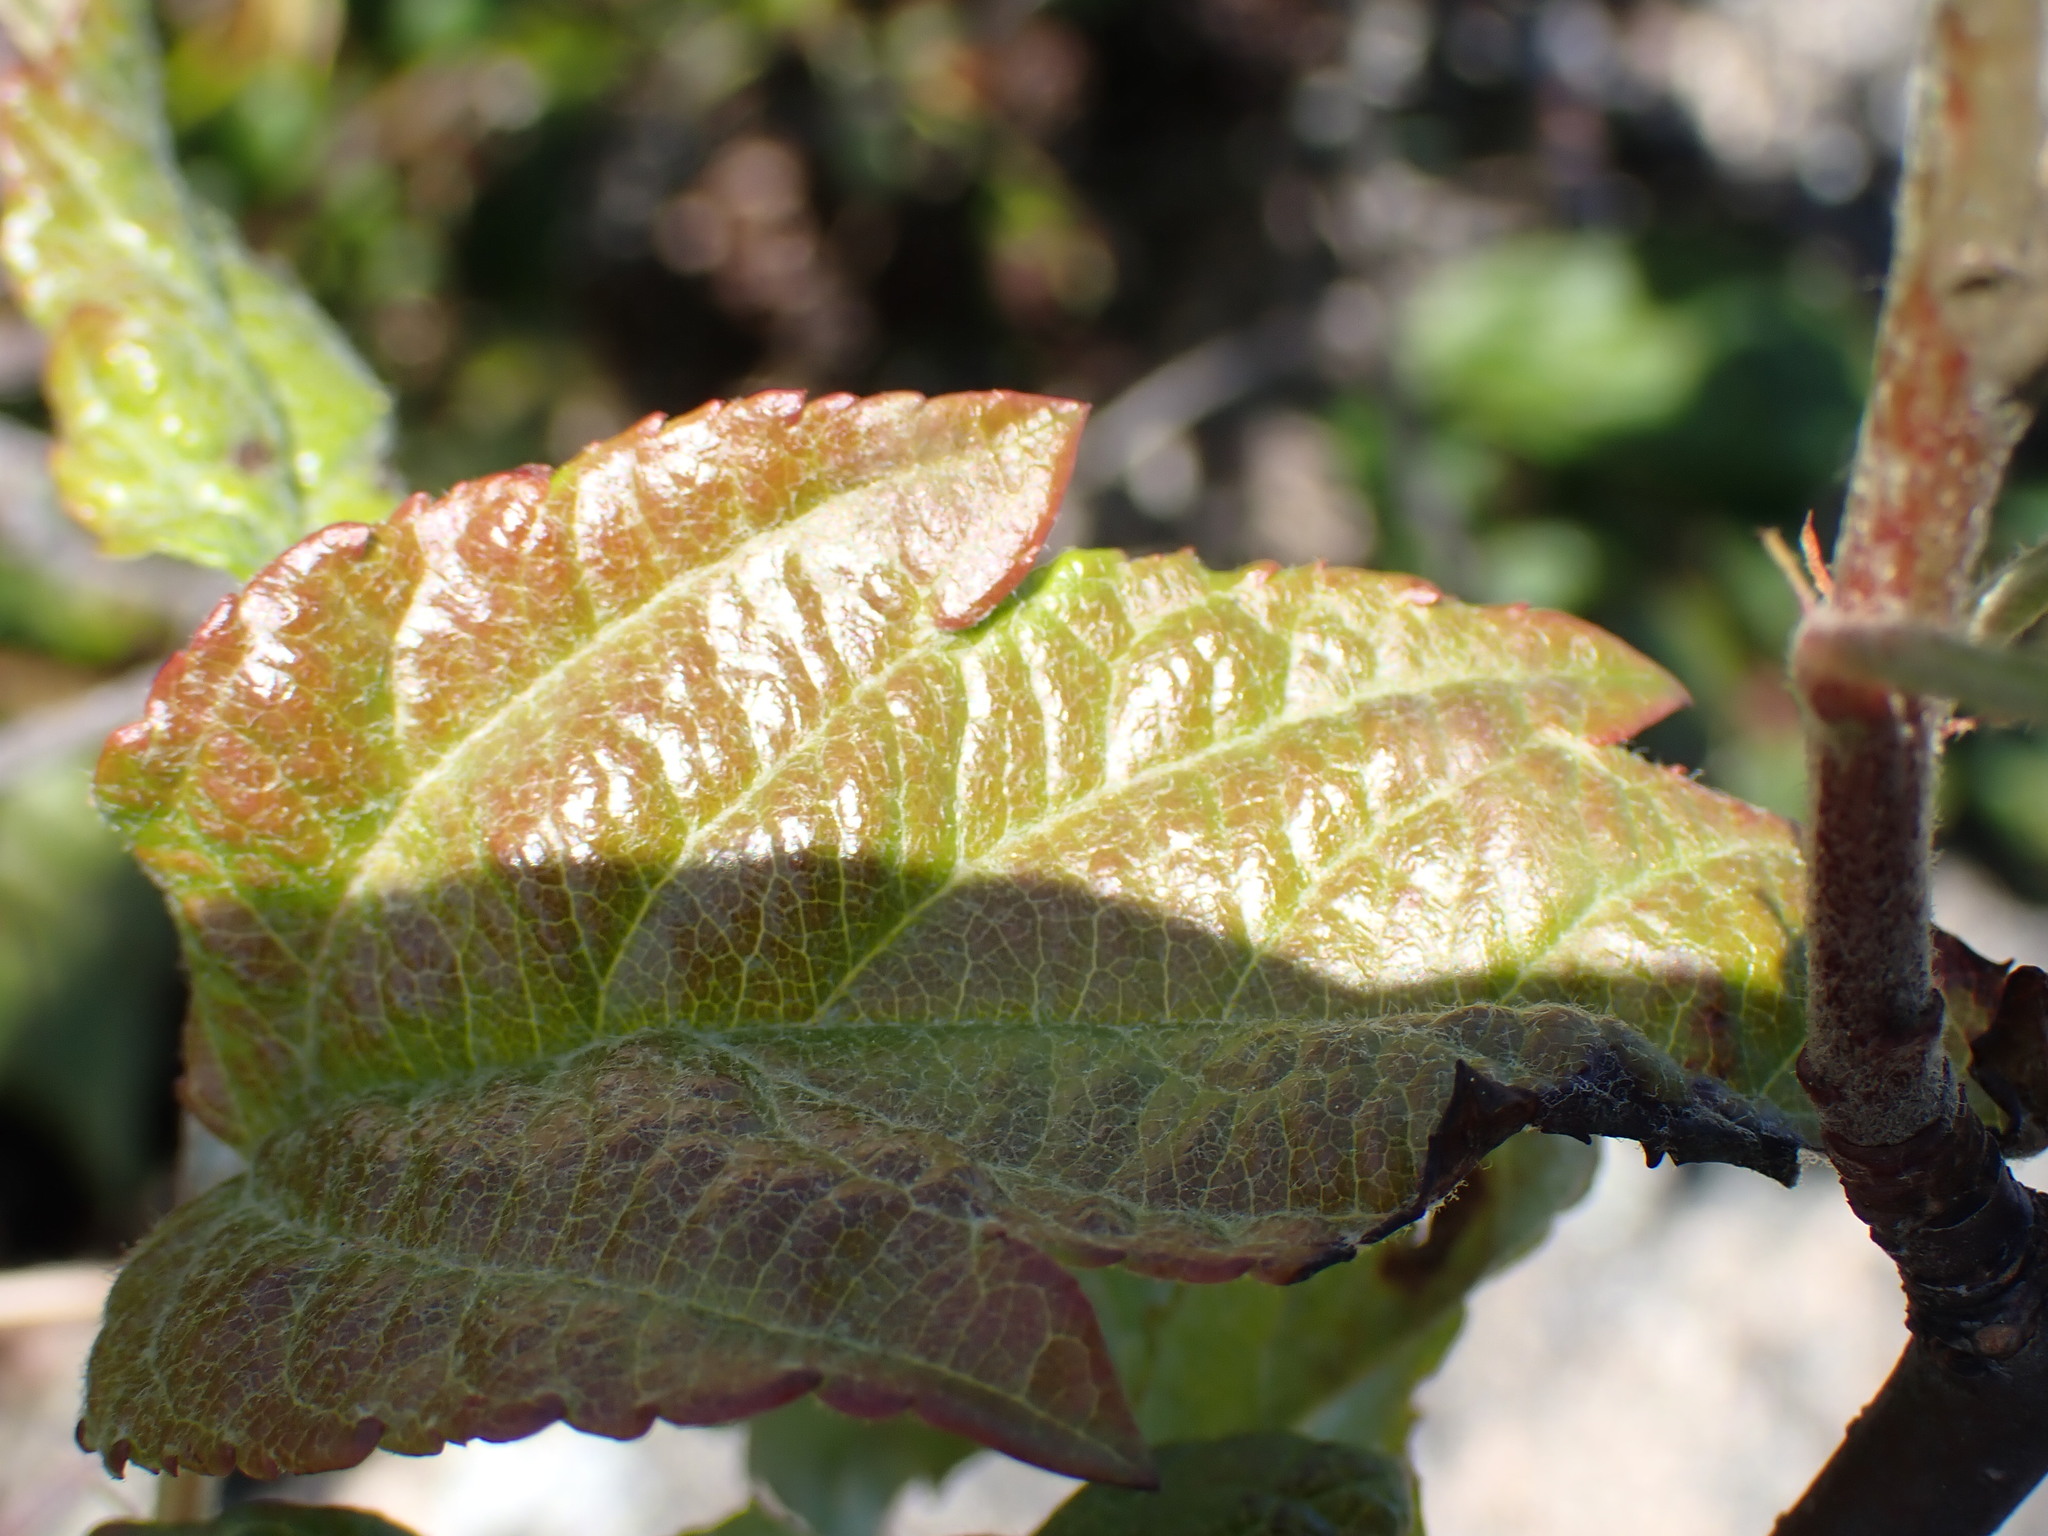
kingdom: Plantae
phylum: Tracheophyta
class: Magnoliopsida
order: Rosales
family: Rosaceae
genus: Malus
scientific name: Malus fusca
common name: Oregon crab apple
